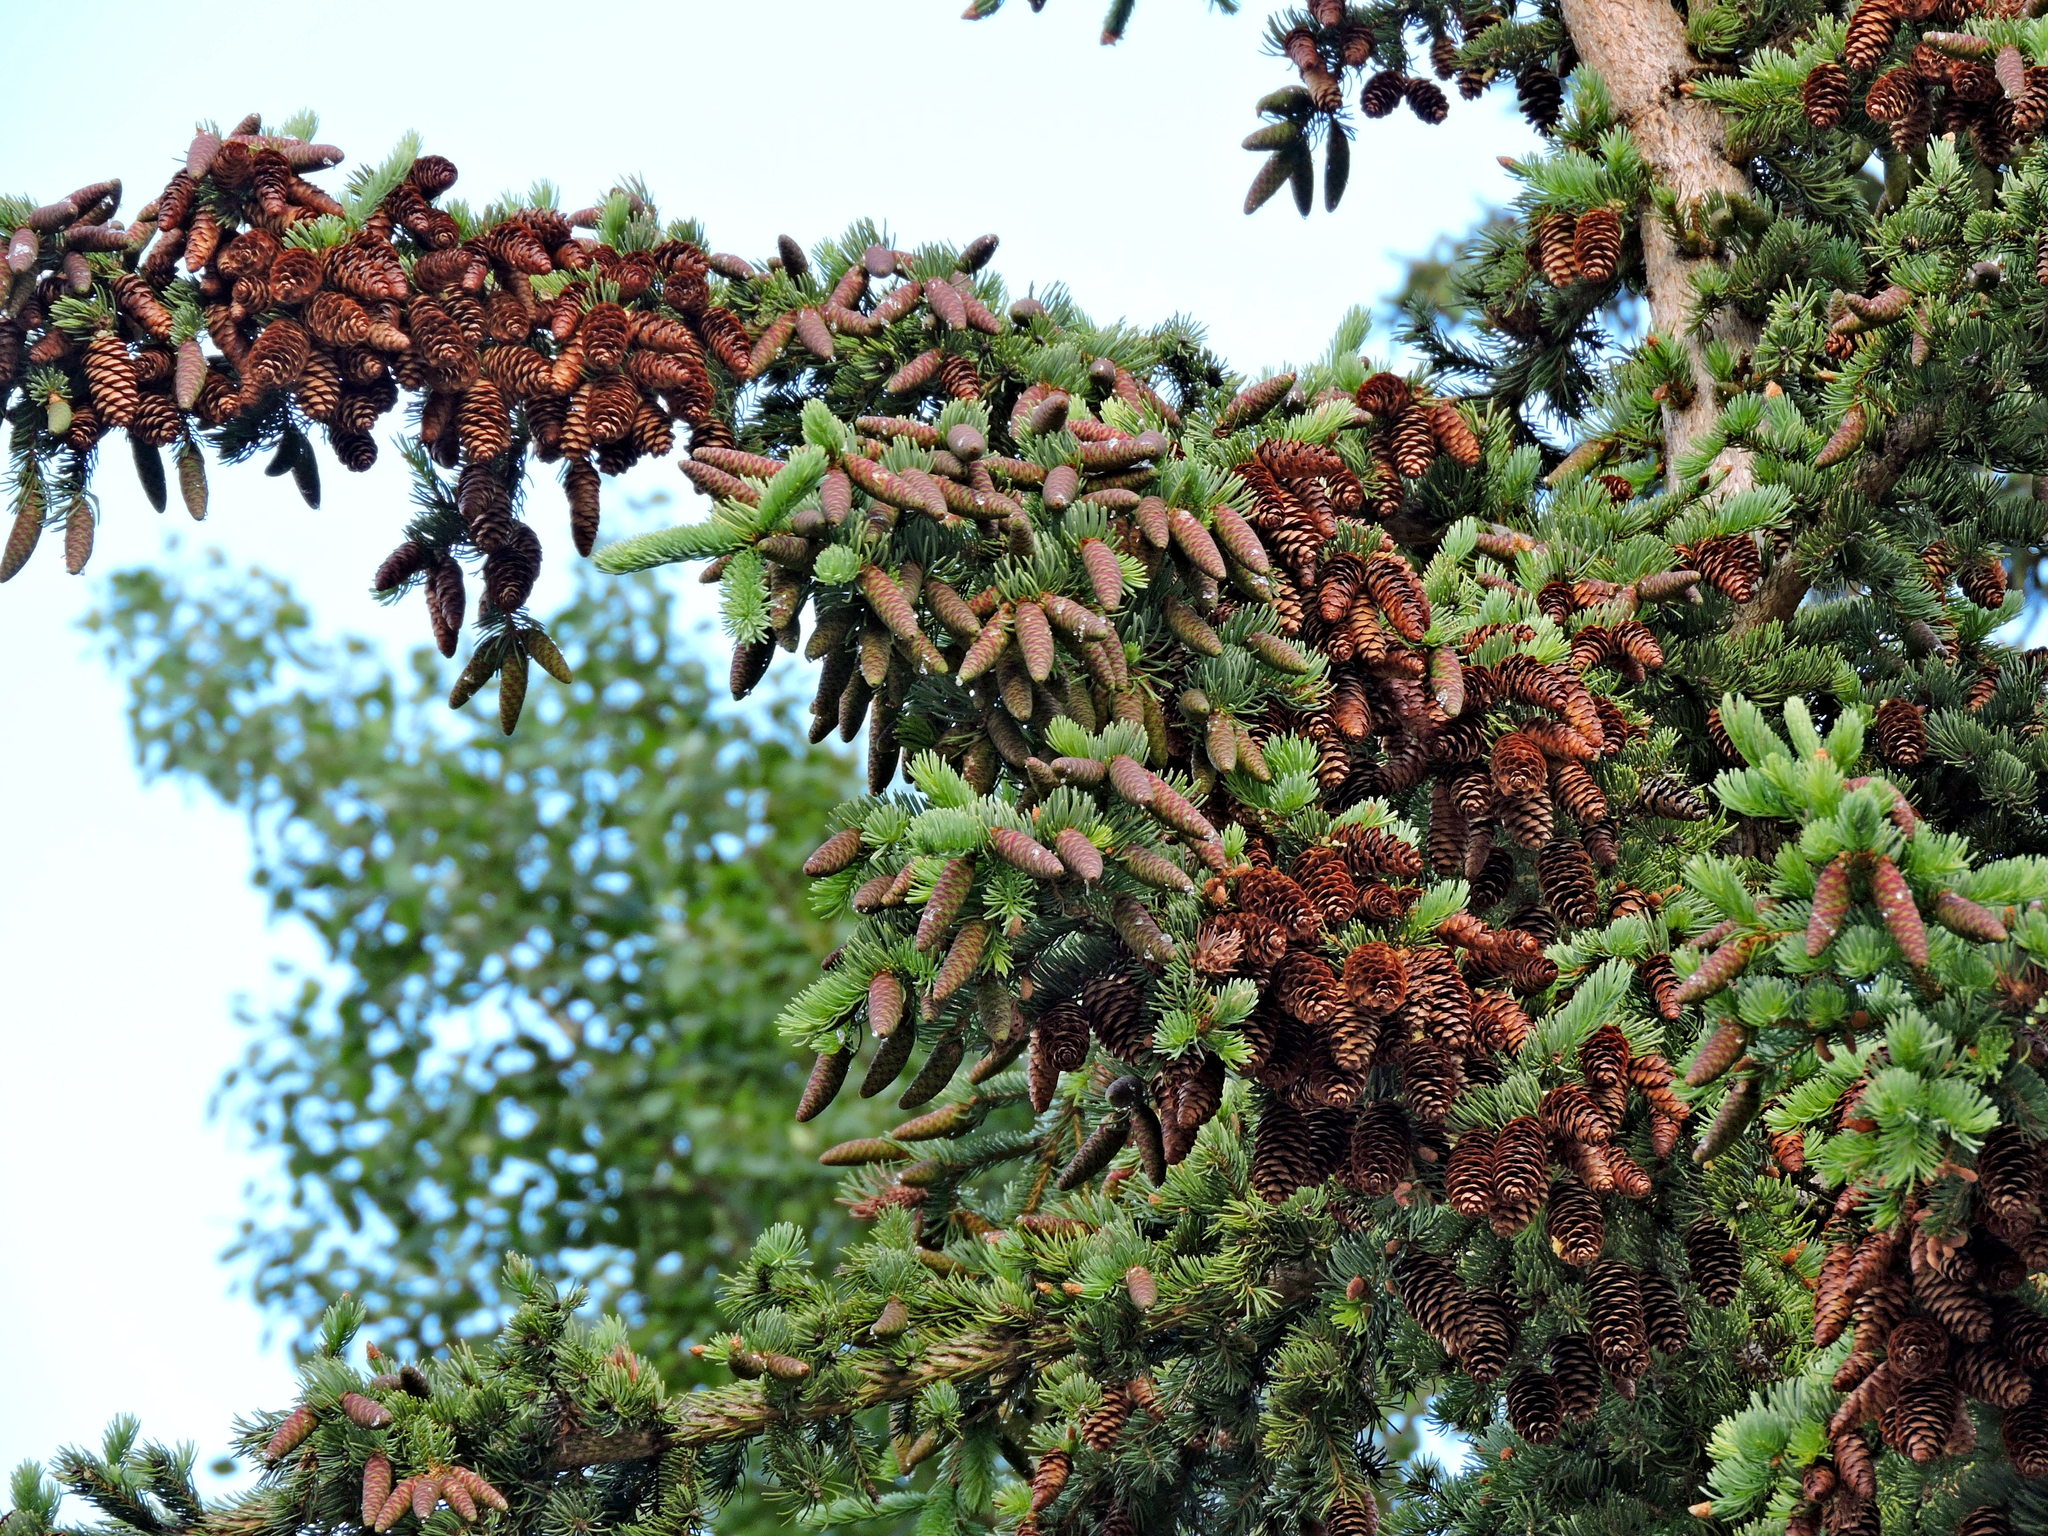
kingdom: Plantae
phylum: Tracheophyta
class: Pinopsida
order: Pinales
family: Pinaceae
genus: Picea
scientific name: Picea glauca
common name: White spruce
